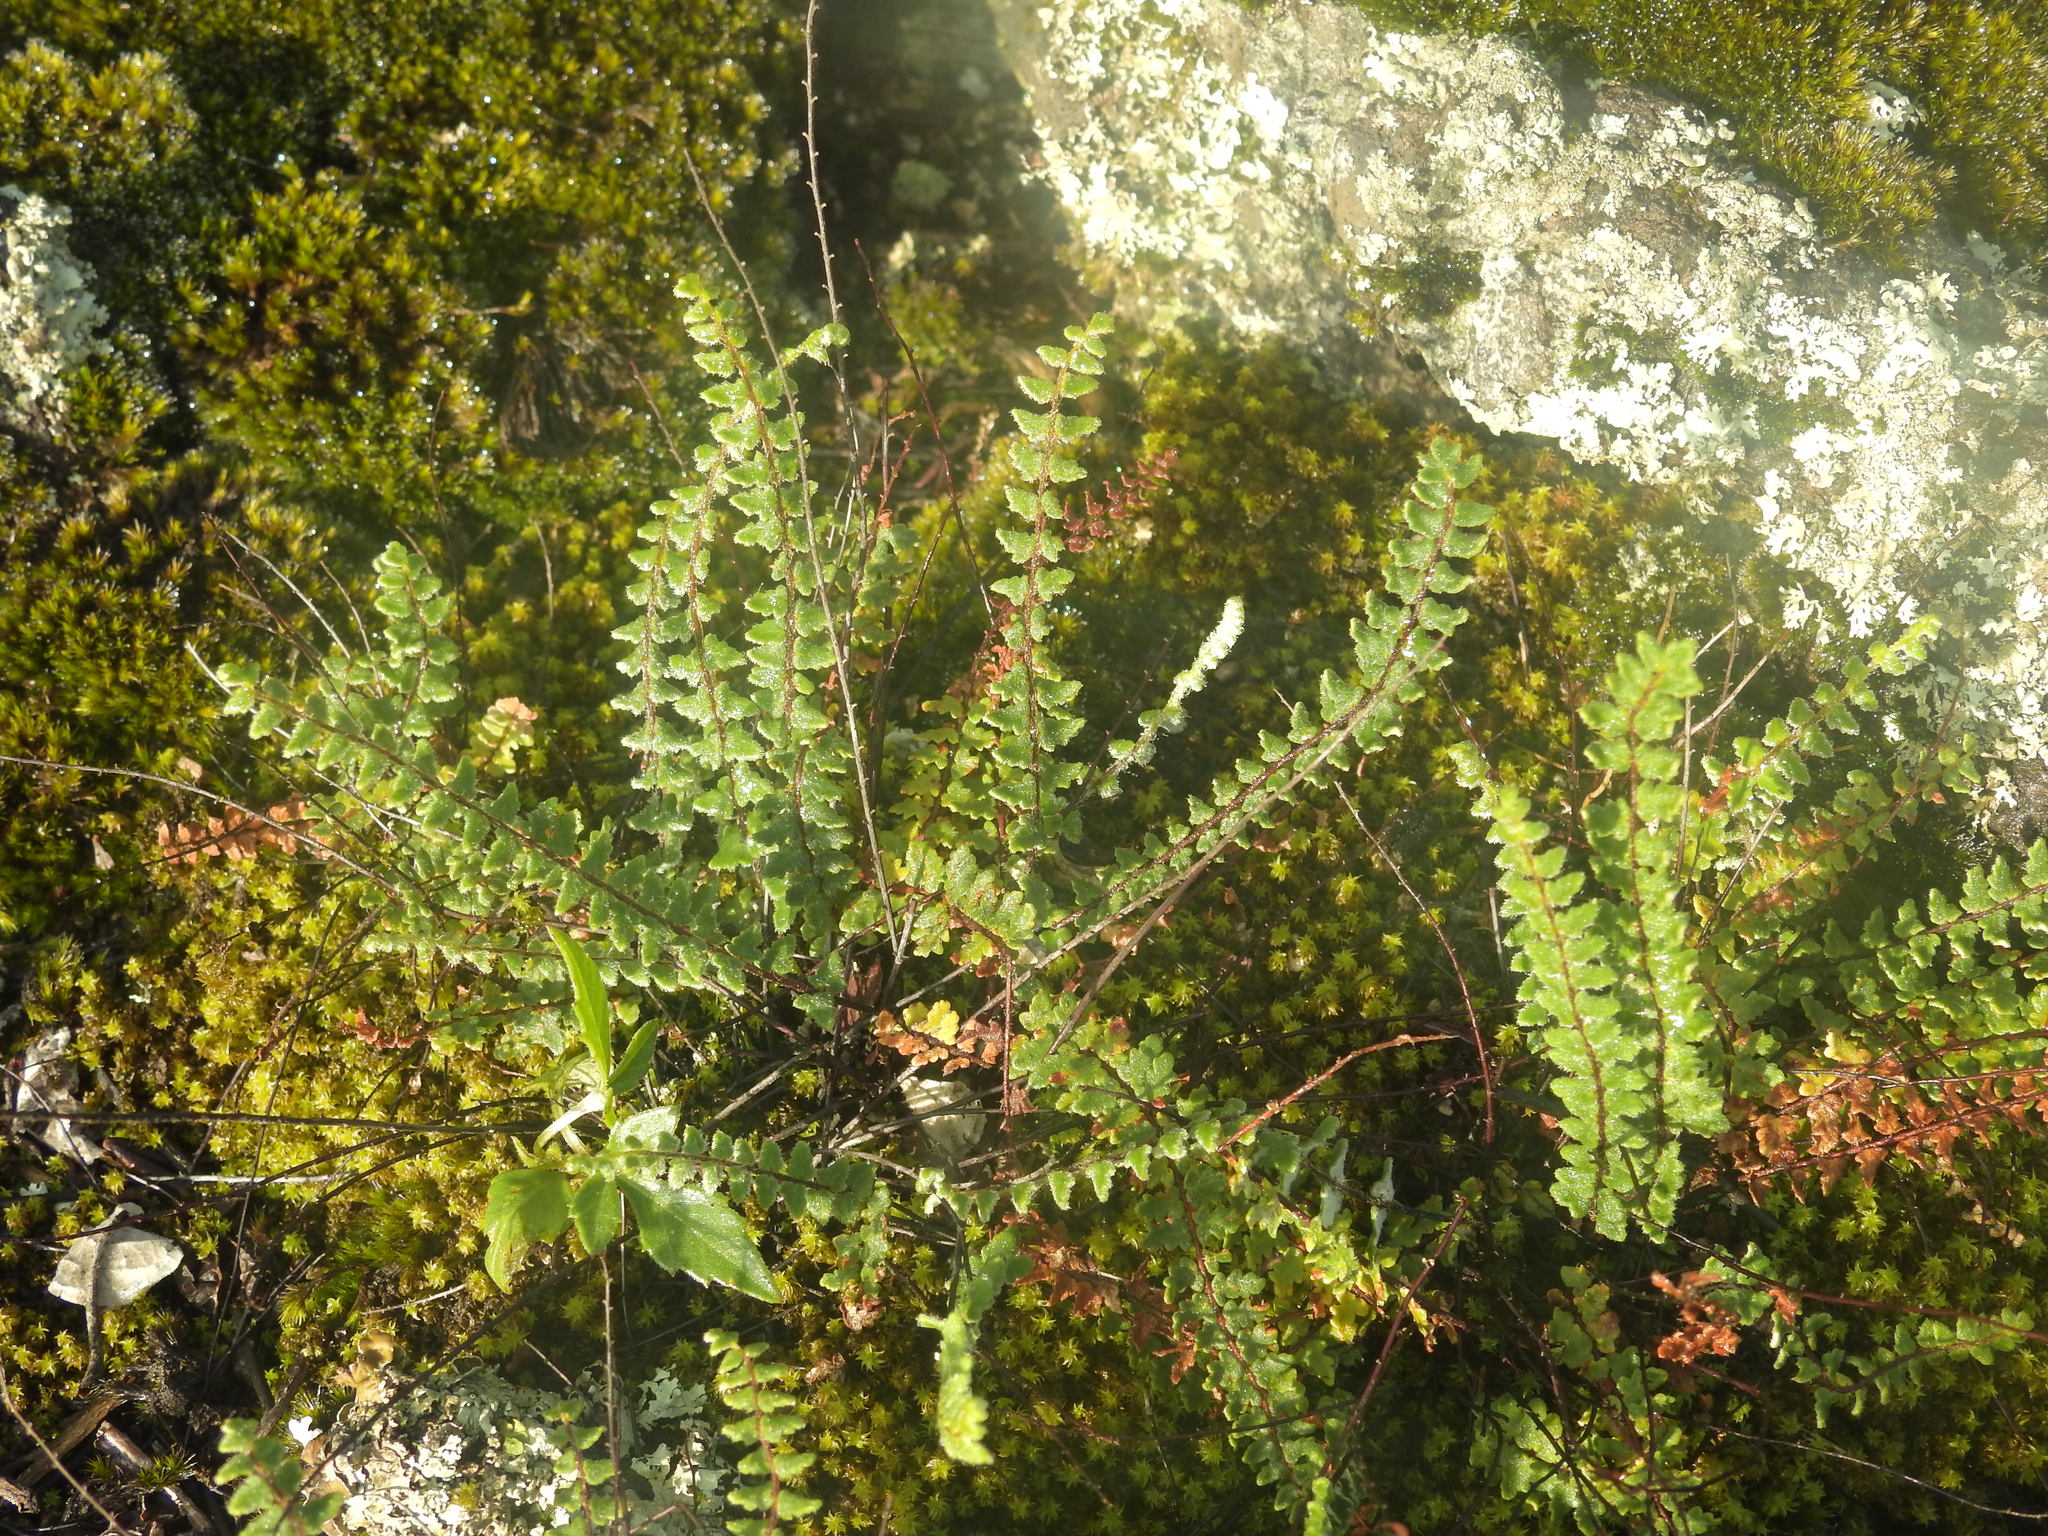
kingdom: Plantae
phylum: Tracheophyta
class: Polypodiopsida
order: Polypodiales
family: Pteridaceae
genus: Myriopteris
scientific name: Myriopteris aurea
